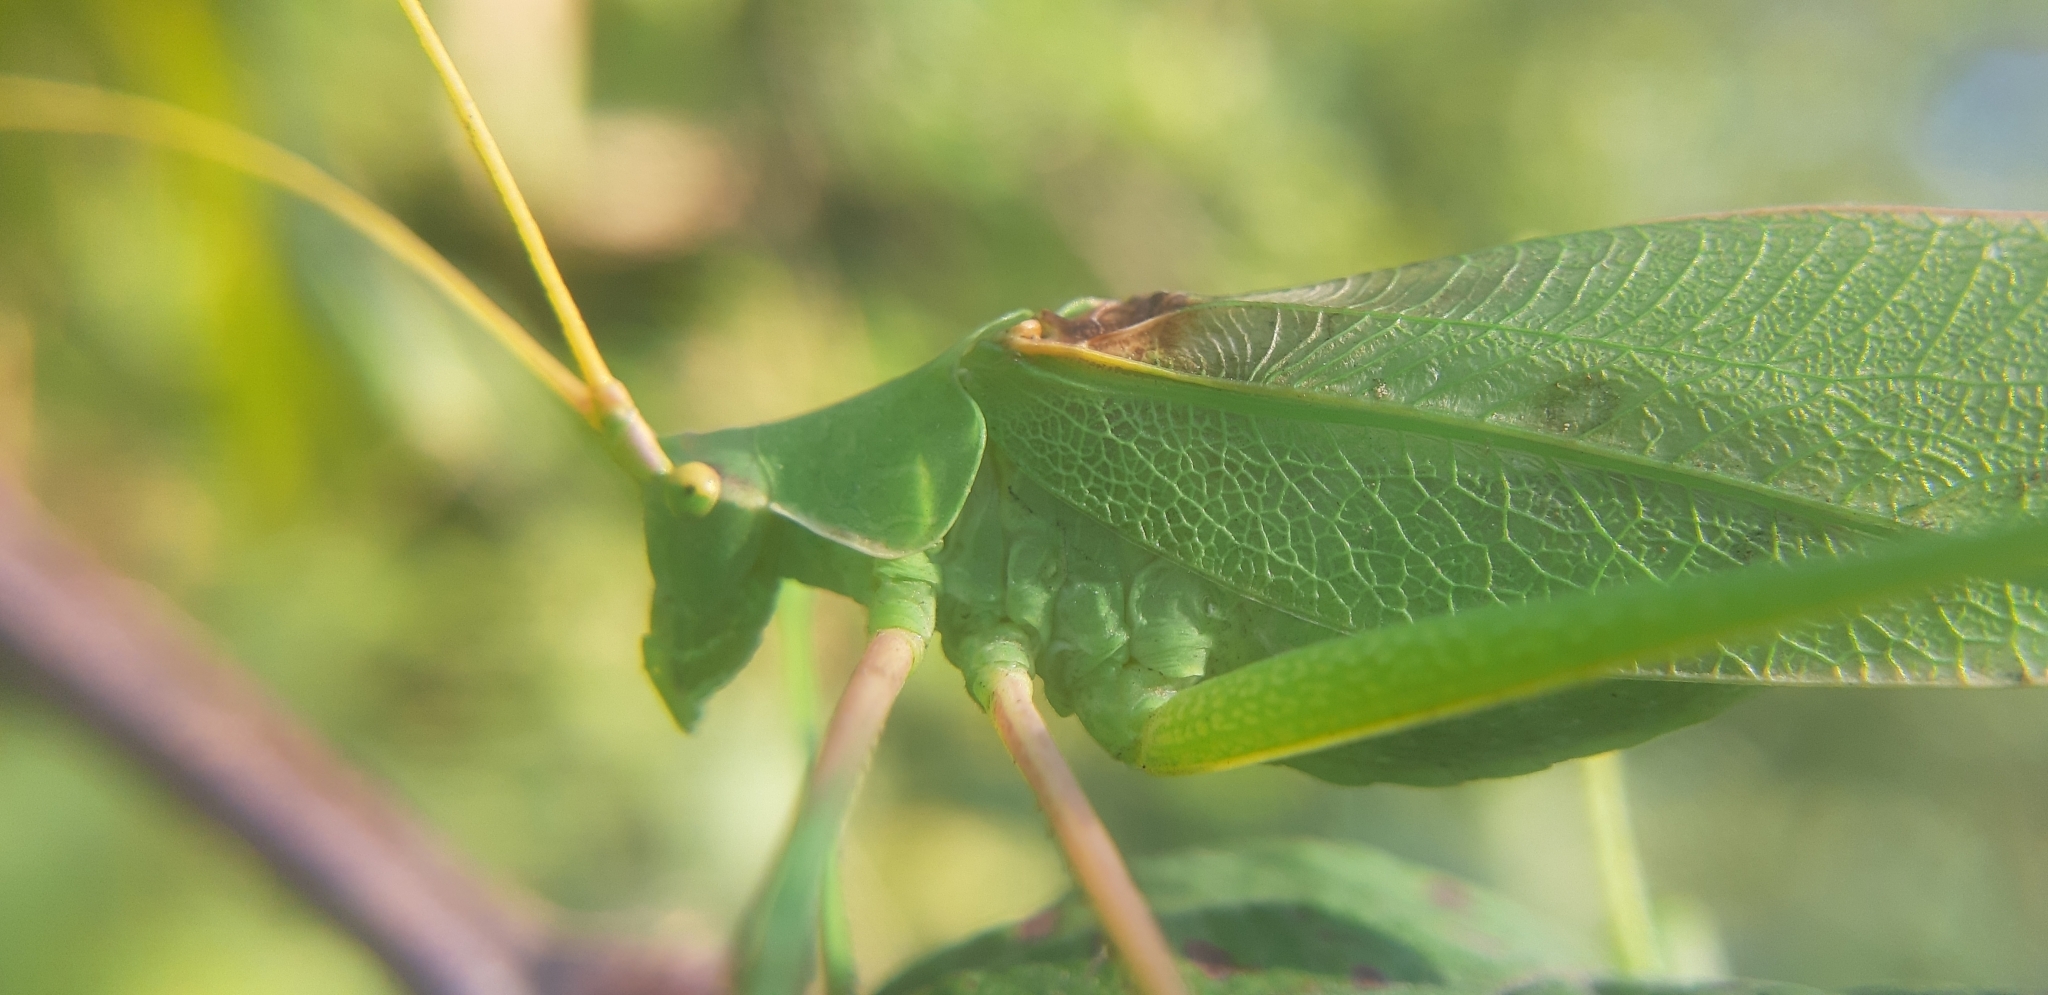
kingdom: Animalia
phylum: Arthropoda
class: Insecta
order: Orthoptera
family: Tettigoniidae
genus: Acrometopa
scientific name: Acrometopa italica
